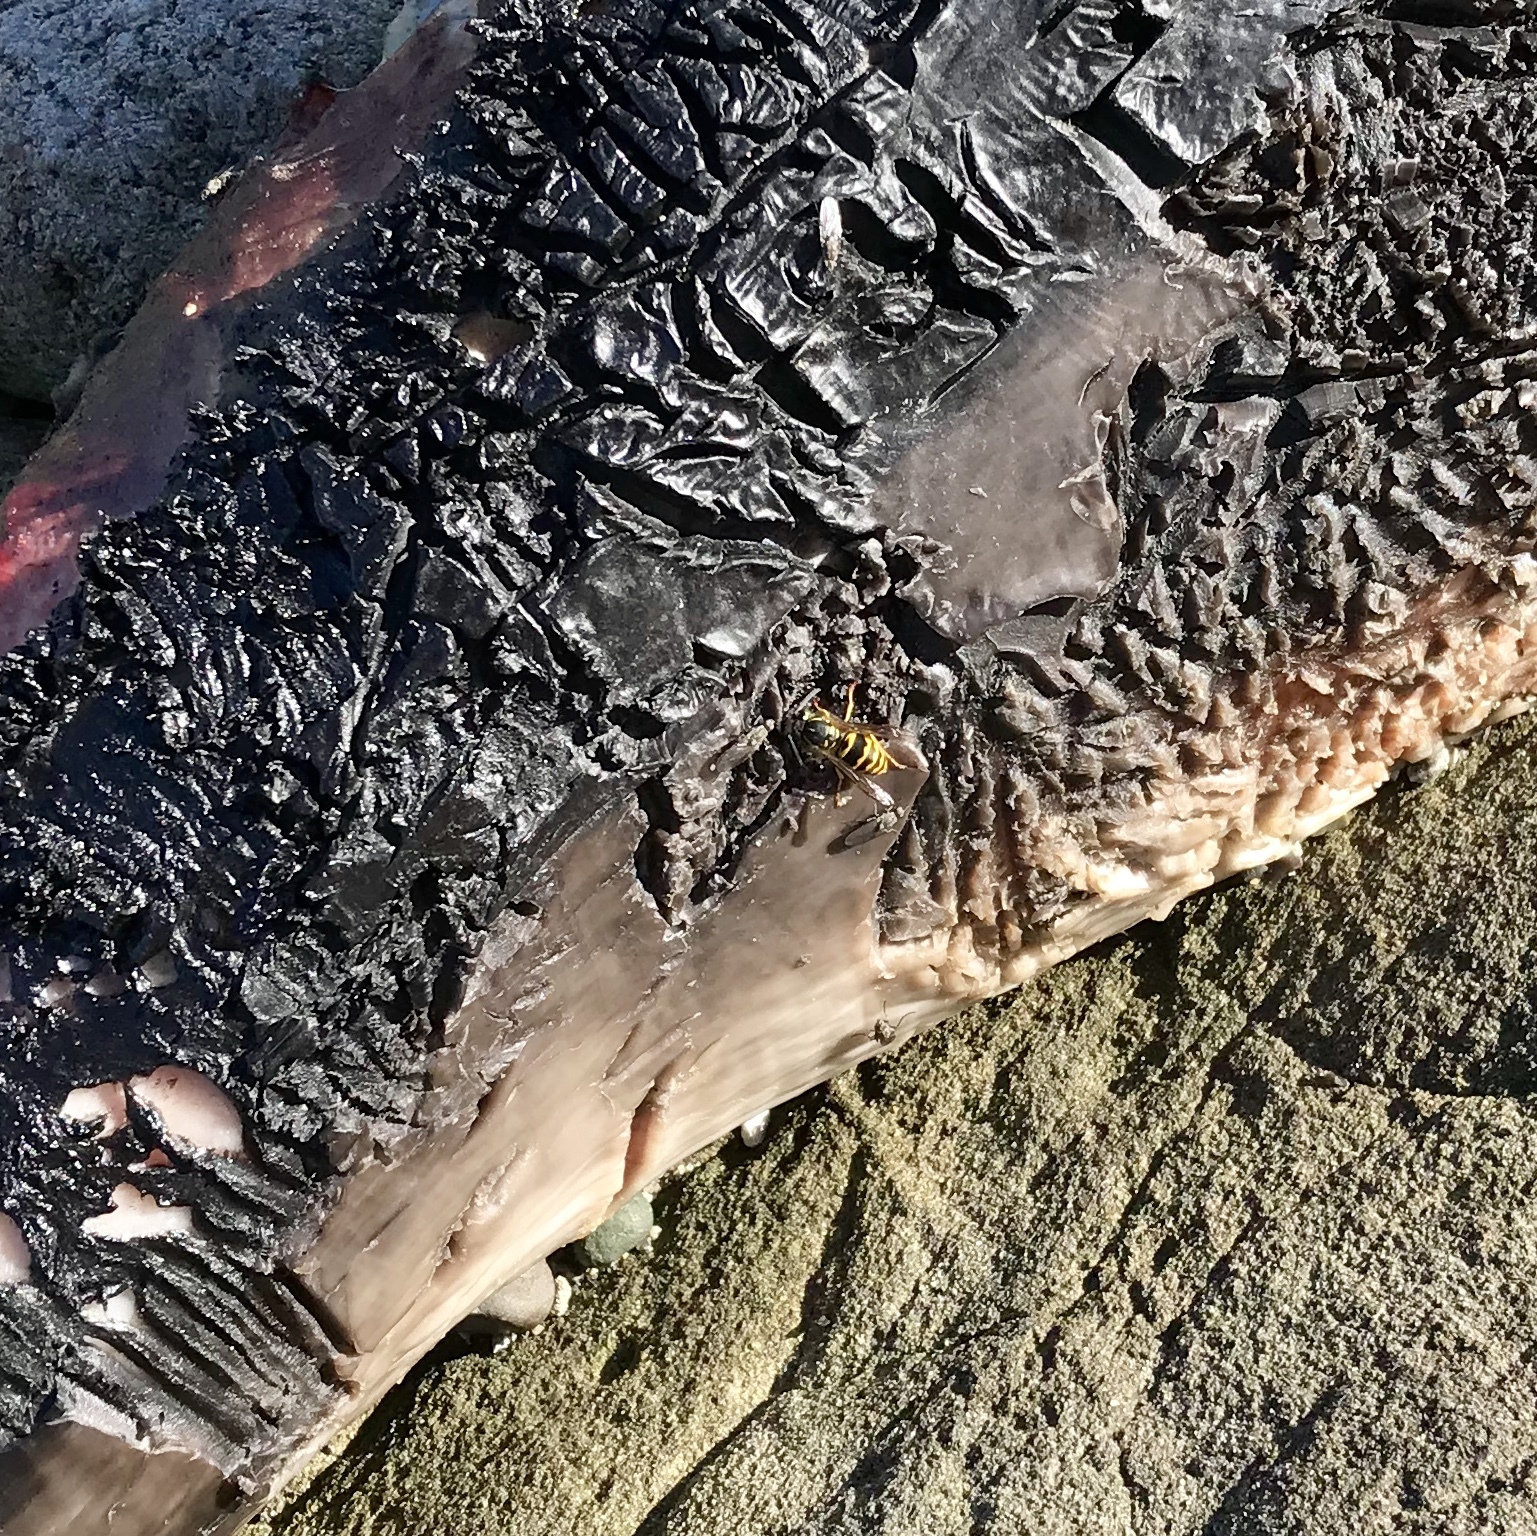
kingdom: Animalia
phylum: Arthropoda
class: Insecta
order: Hymenoptera
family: Vespidae
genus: Vespula
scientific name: Vespula alascensis
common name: Alaska yellowjacket
